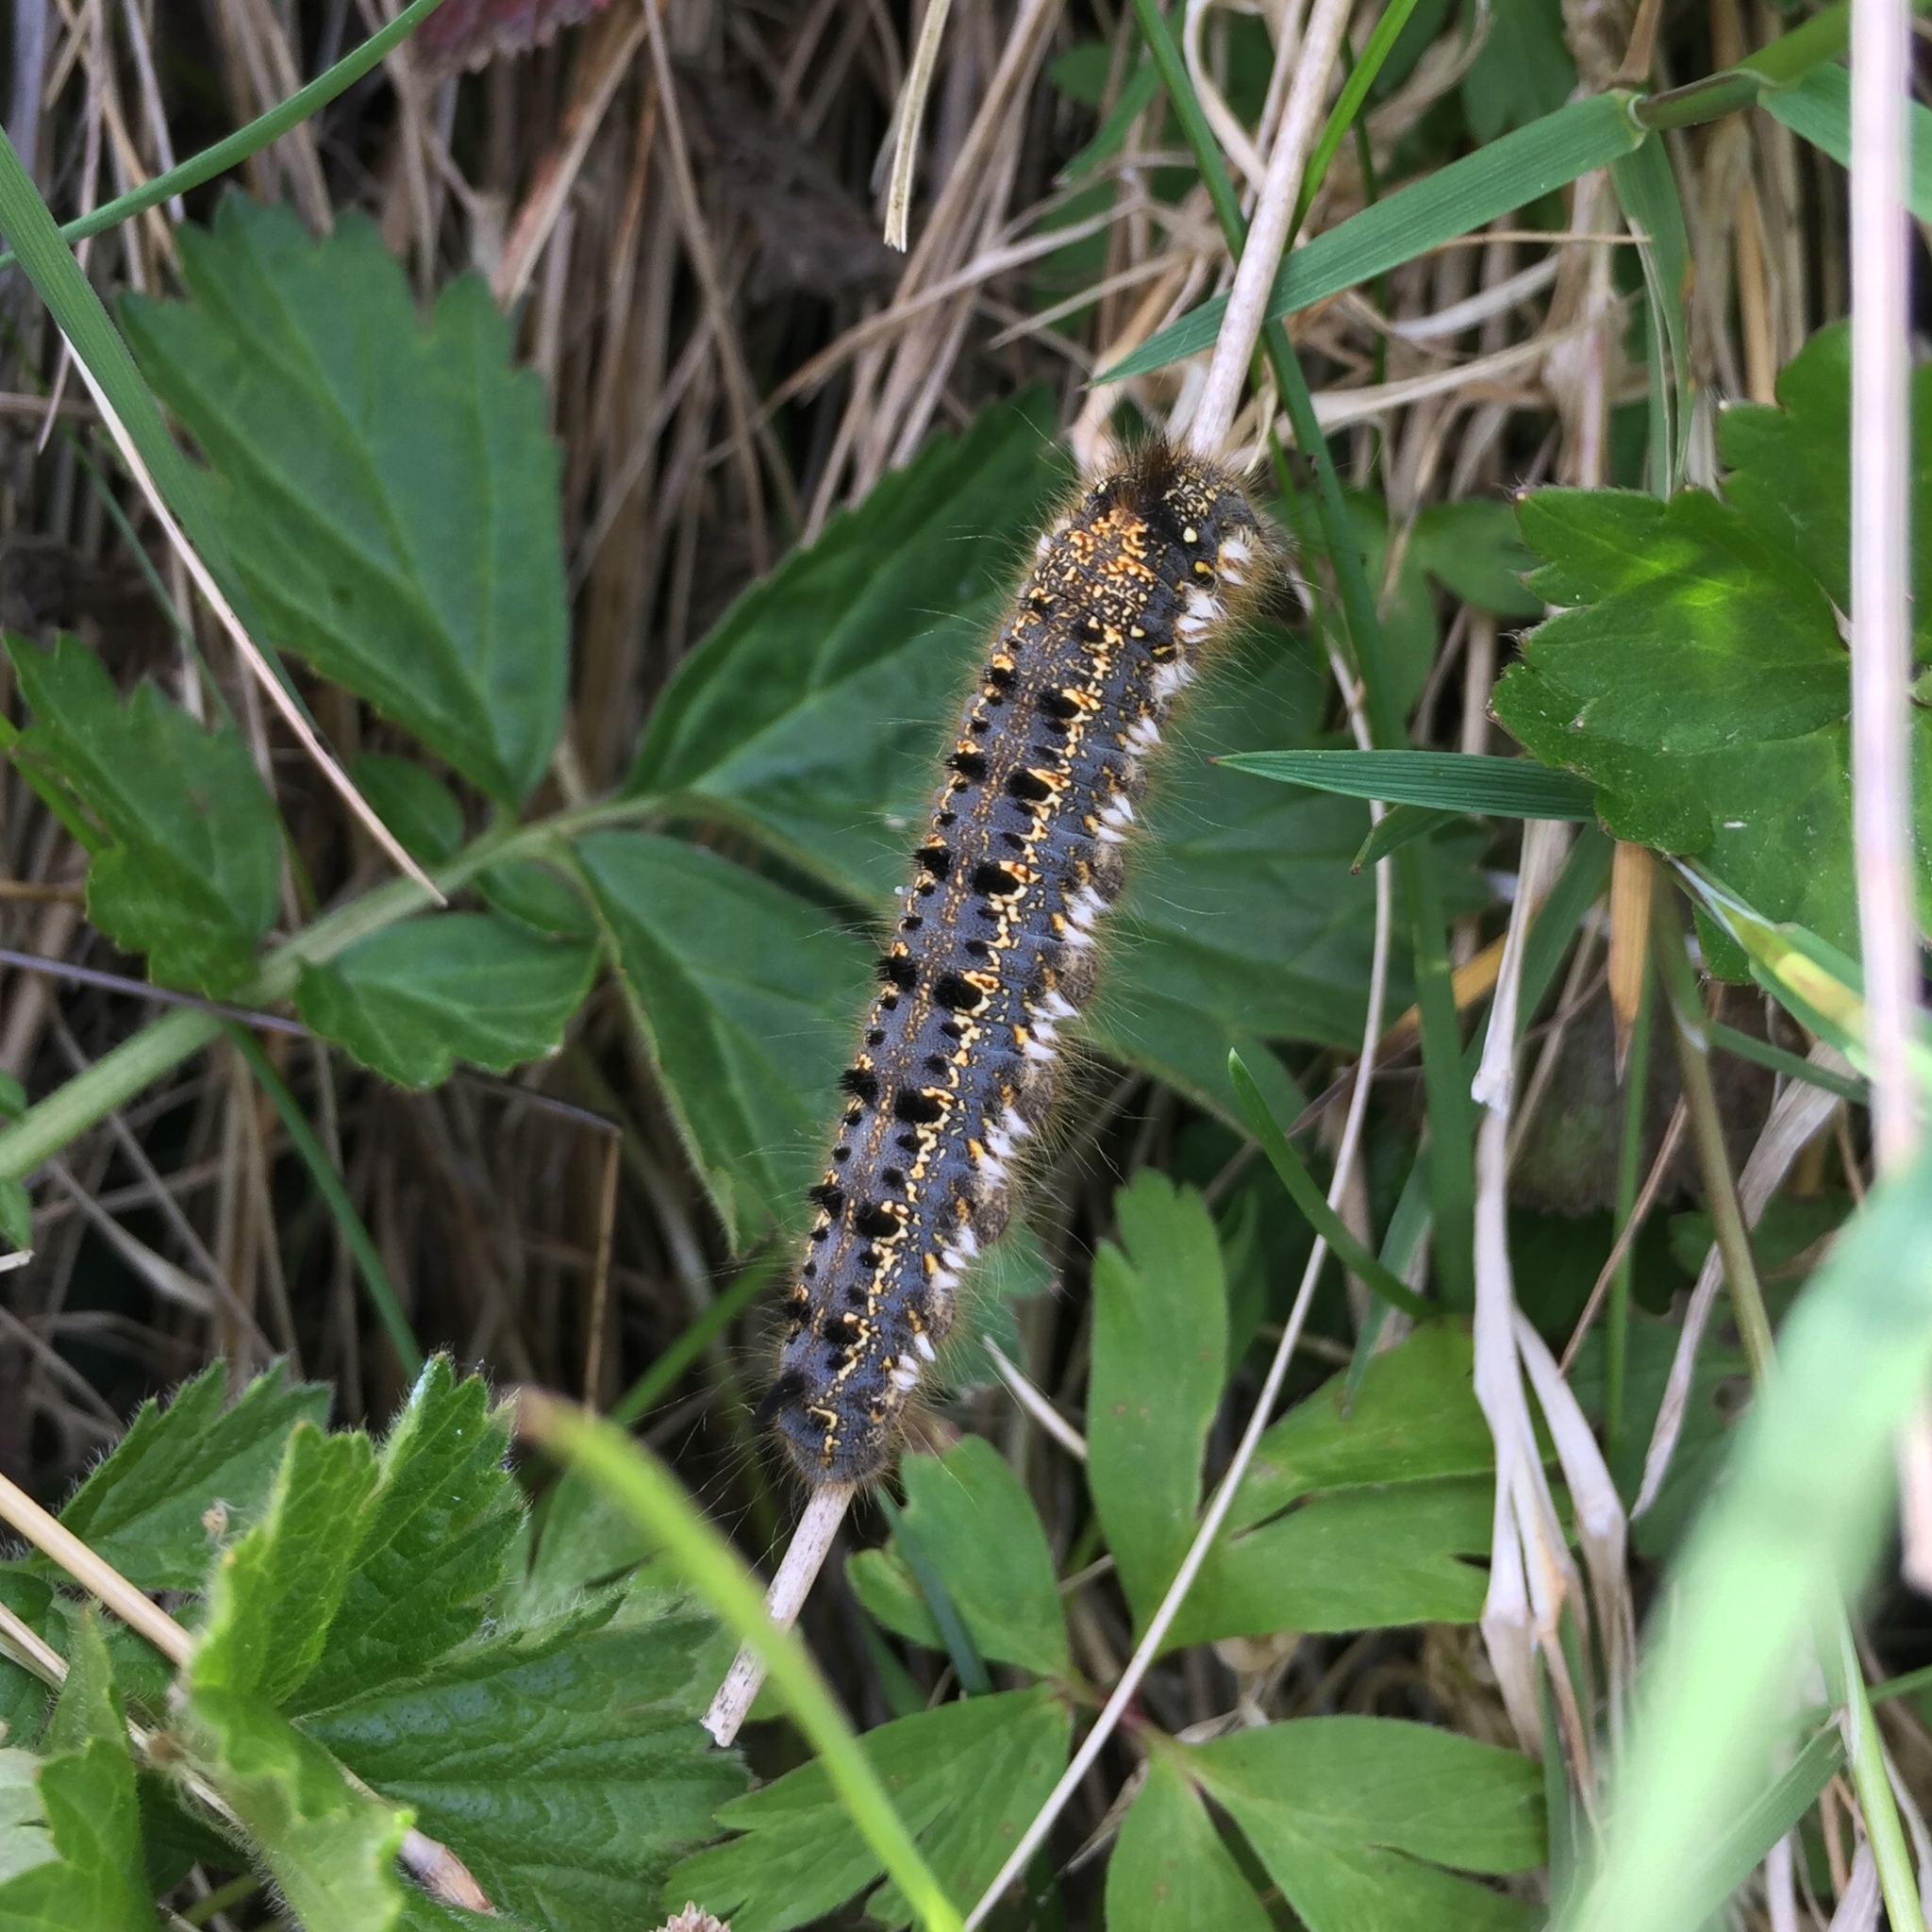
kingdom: Animalia
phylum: Arthropoda
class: Insecta
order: Lepidoptera
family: Lasiocampidae
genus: Euthrix
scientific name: Euthrix potatoria
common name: Drinker
